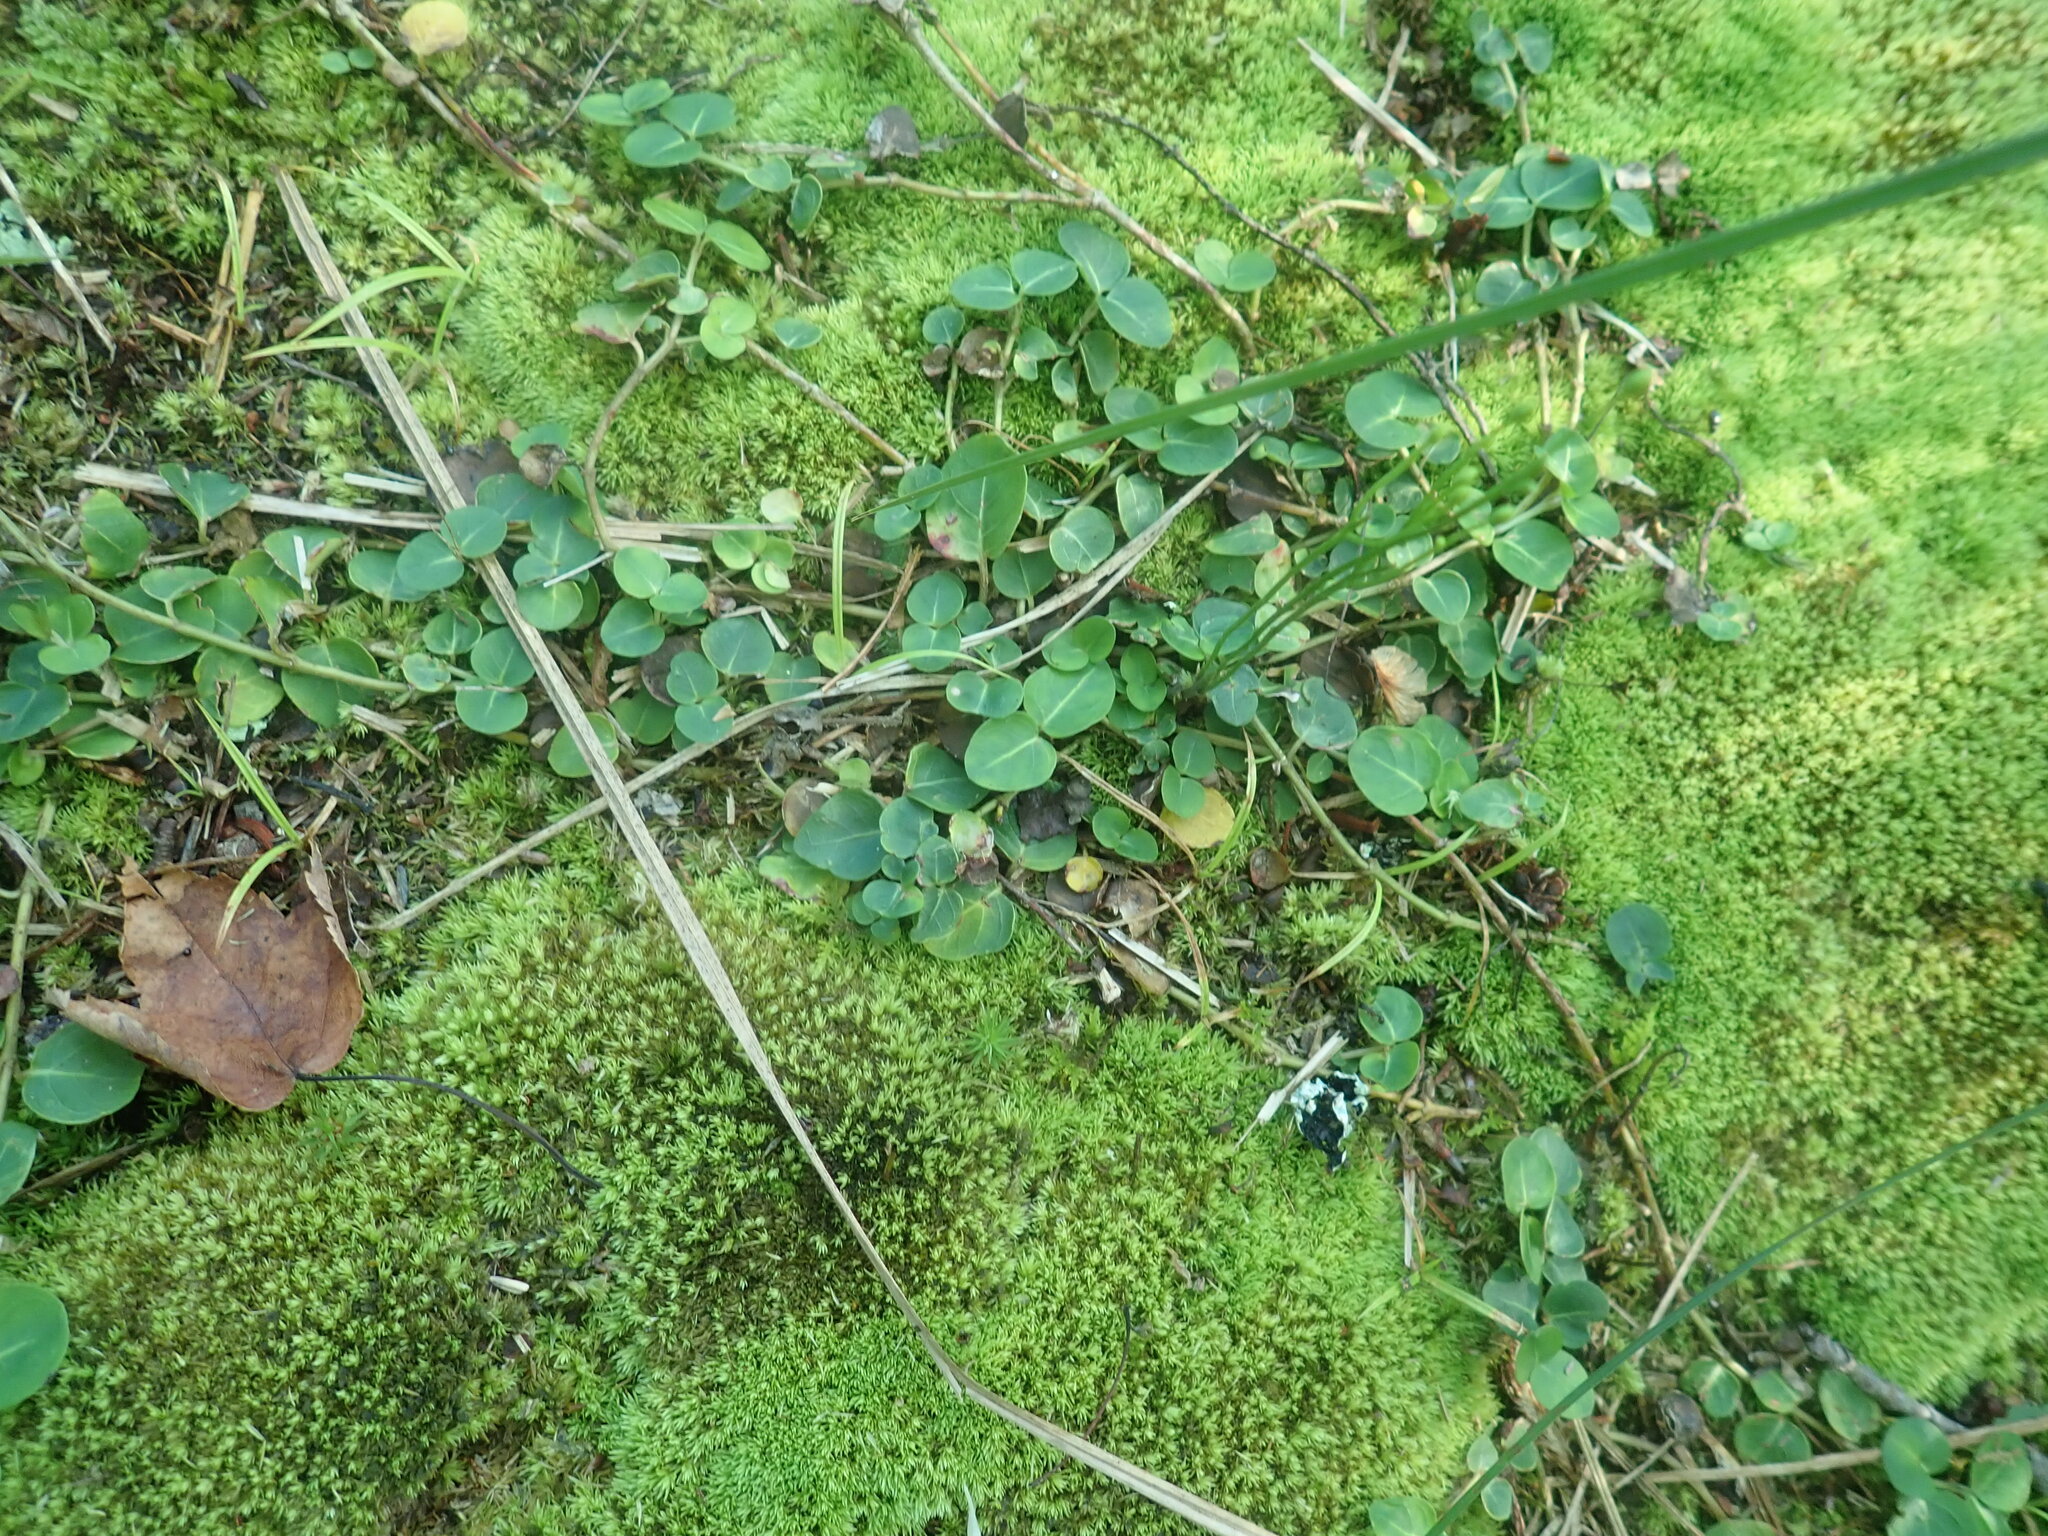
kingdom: Plantae
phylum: Tracheophyta
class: Magnoliopsida
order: Gentianales
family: Rubiaceae
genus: Mitchella
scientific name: Mitchella repens
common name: Partridge-berry
